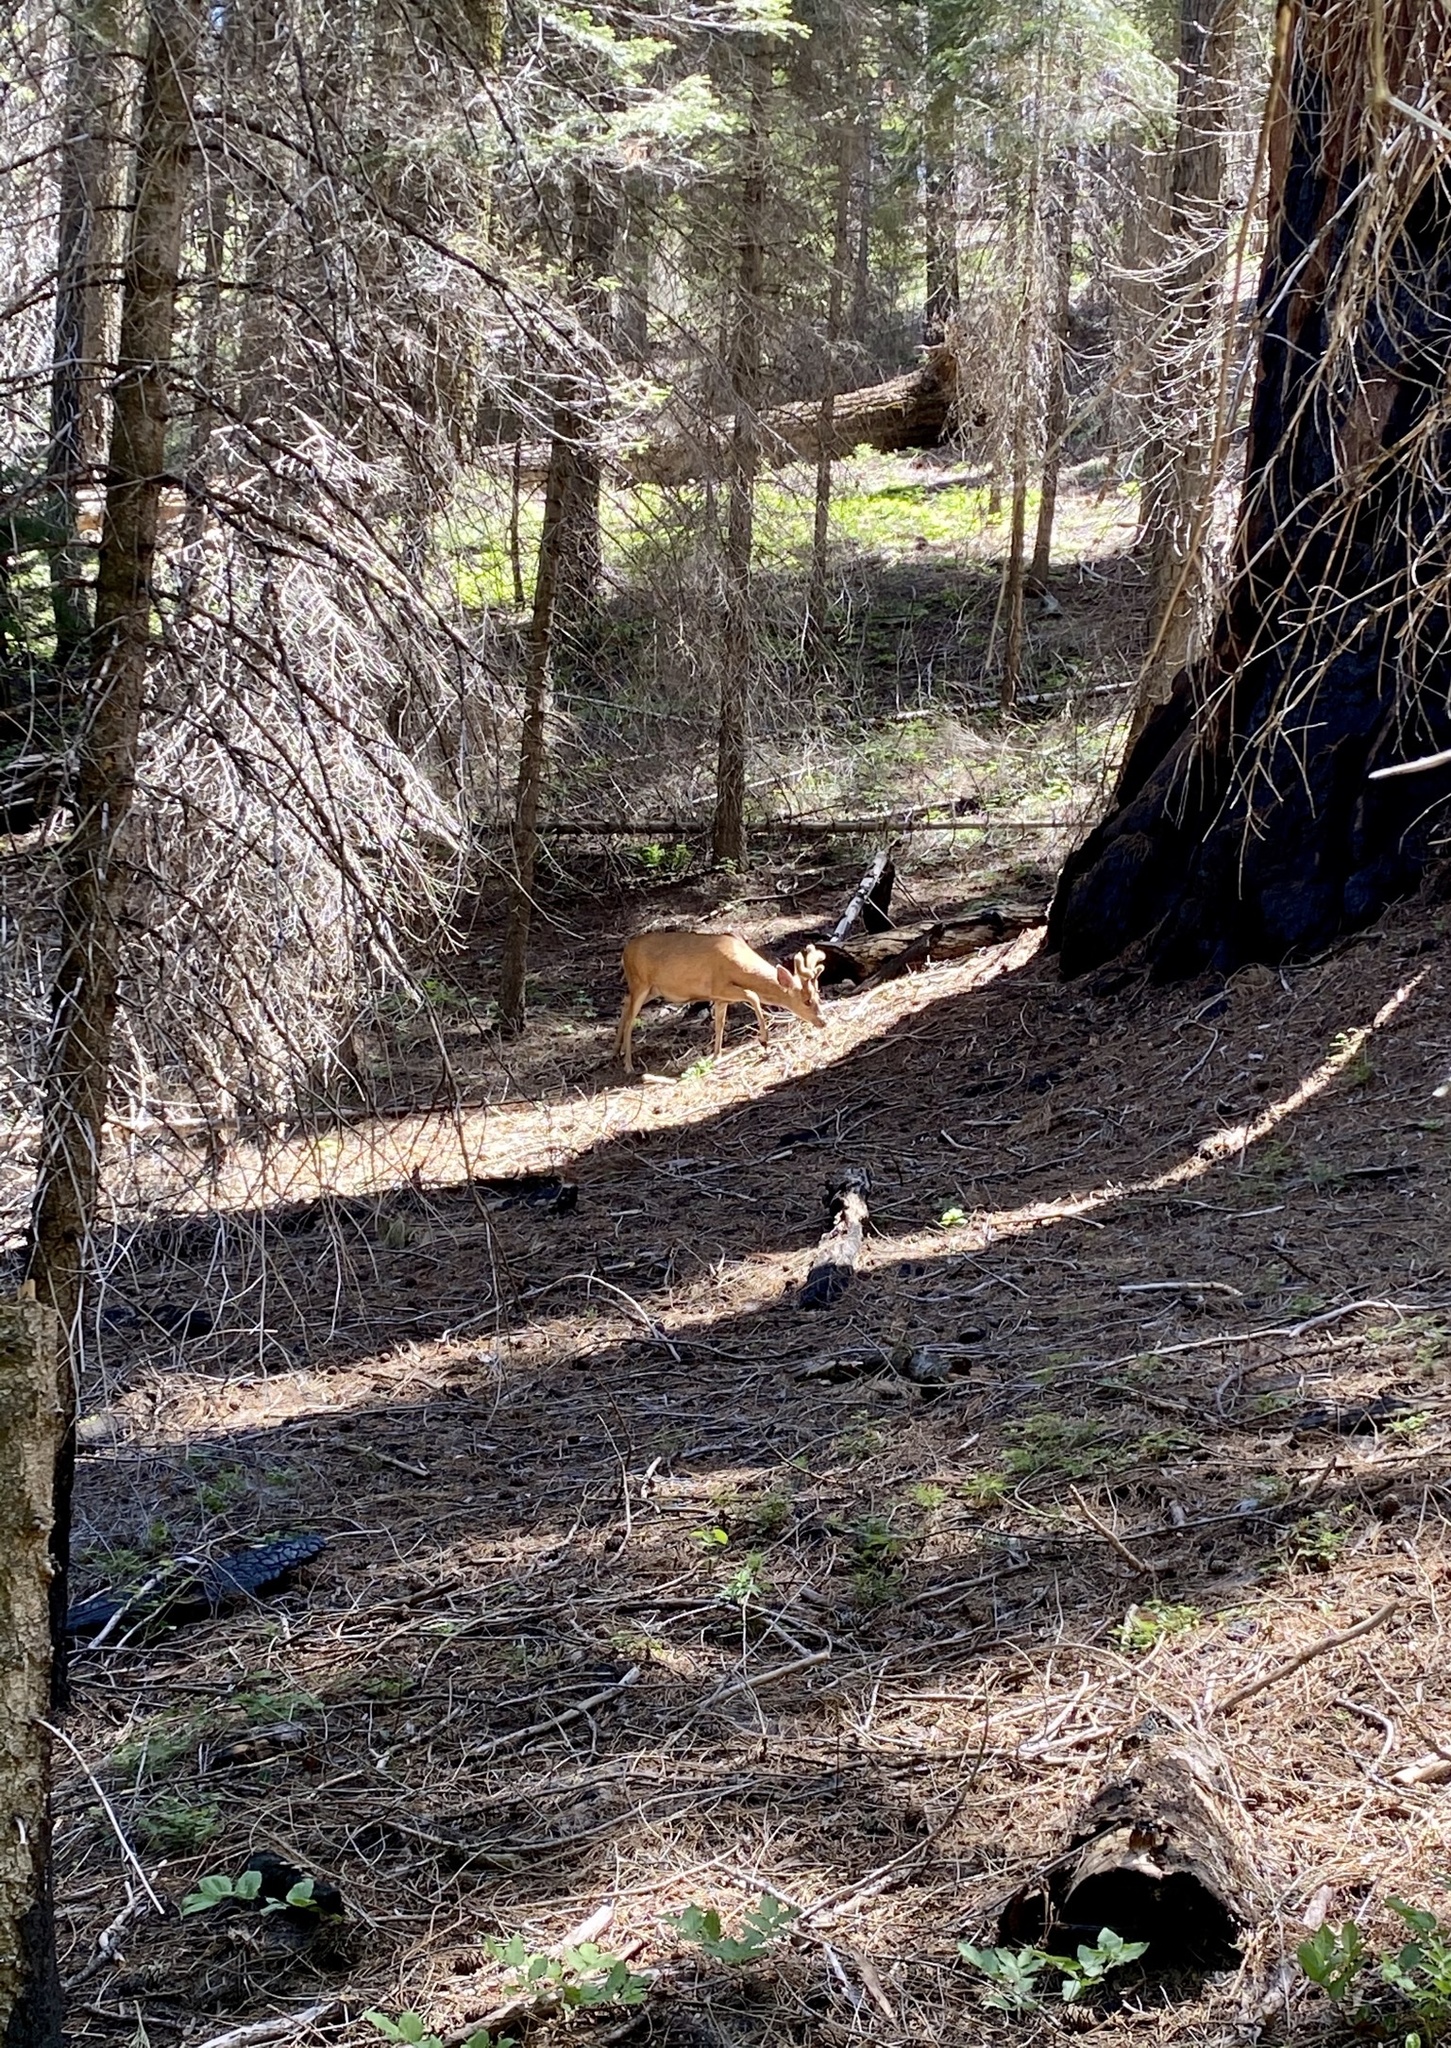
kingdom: Animalia
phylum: Chordata
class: Mammalia
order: Artiodactyla
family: Cervidae
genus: Odocoileus
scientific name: Odocoileus hemionus
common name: Mule deer
